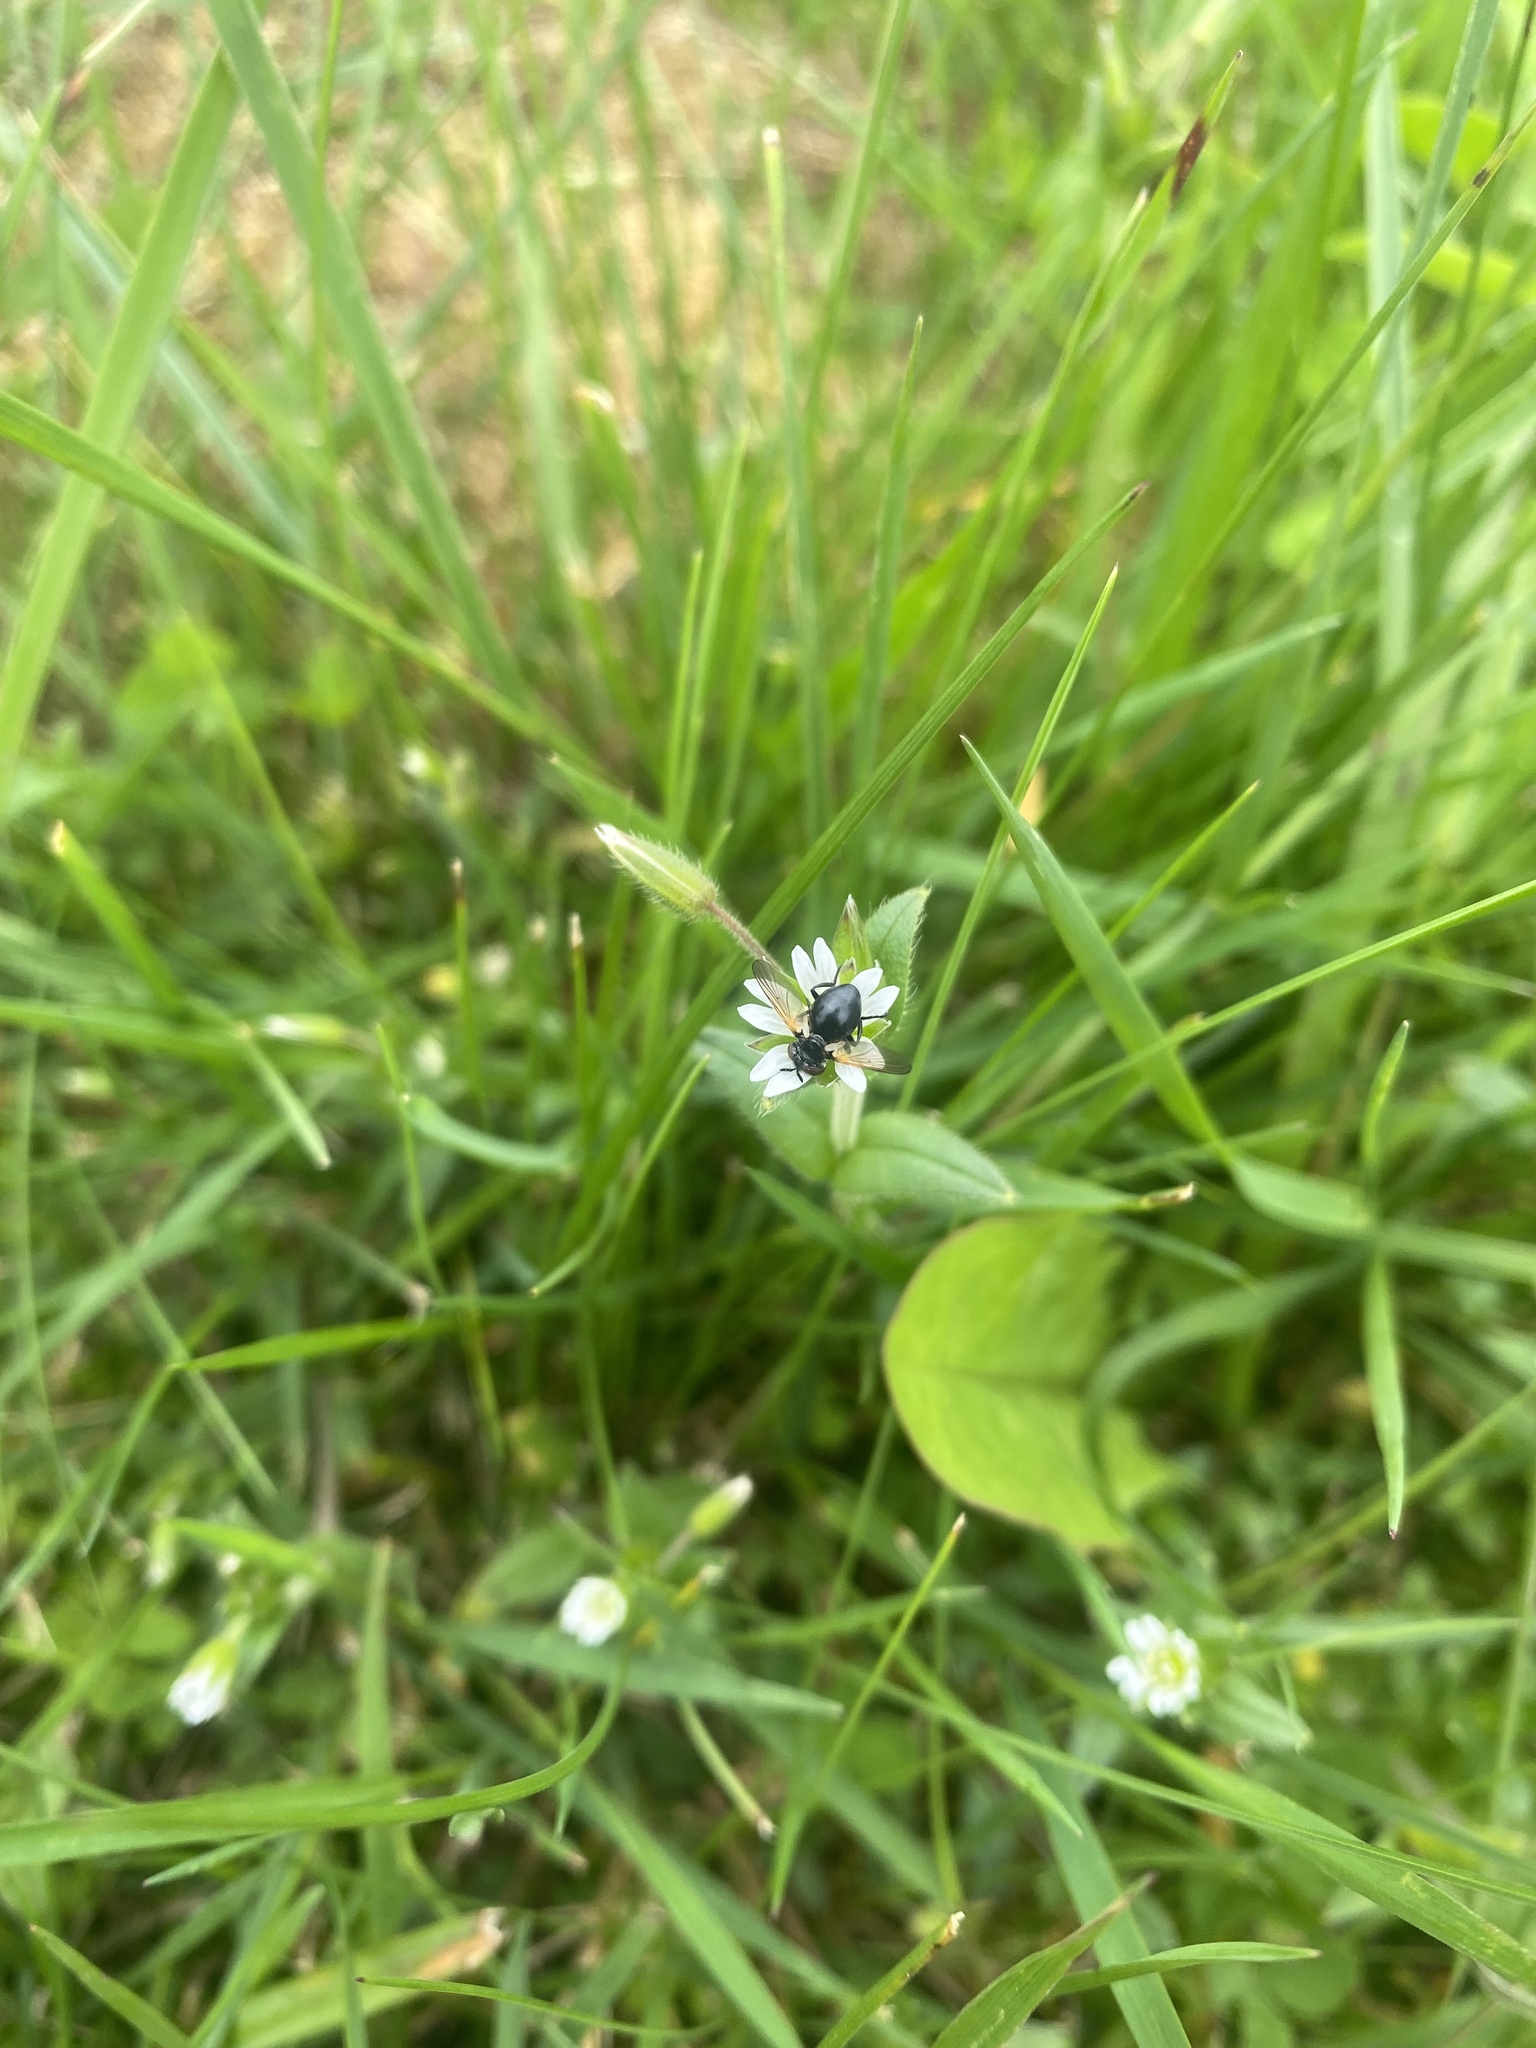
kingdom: Plantae
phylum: Tracheophyta
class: Magnoliopsida
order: Caryophyllales
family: Caryophyllaceae
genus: Cerastium
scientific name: Cerastium holosteoides
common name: Big chickweed
